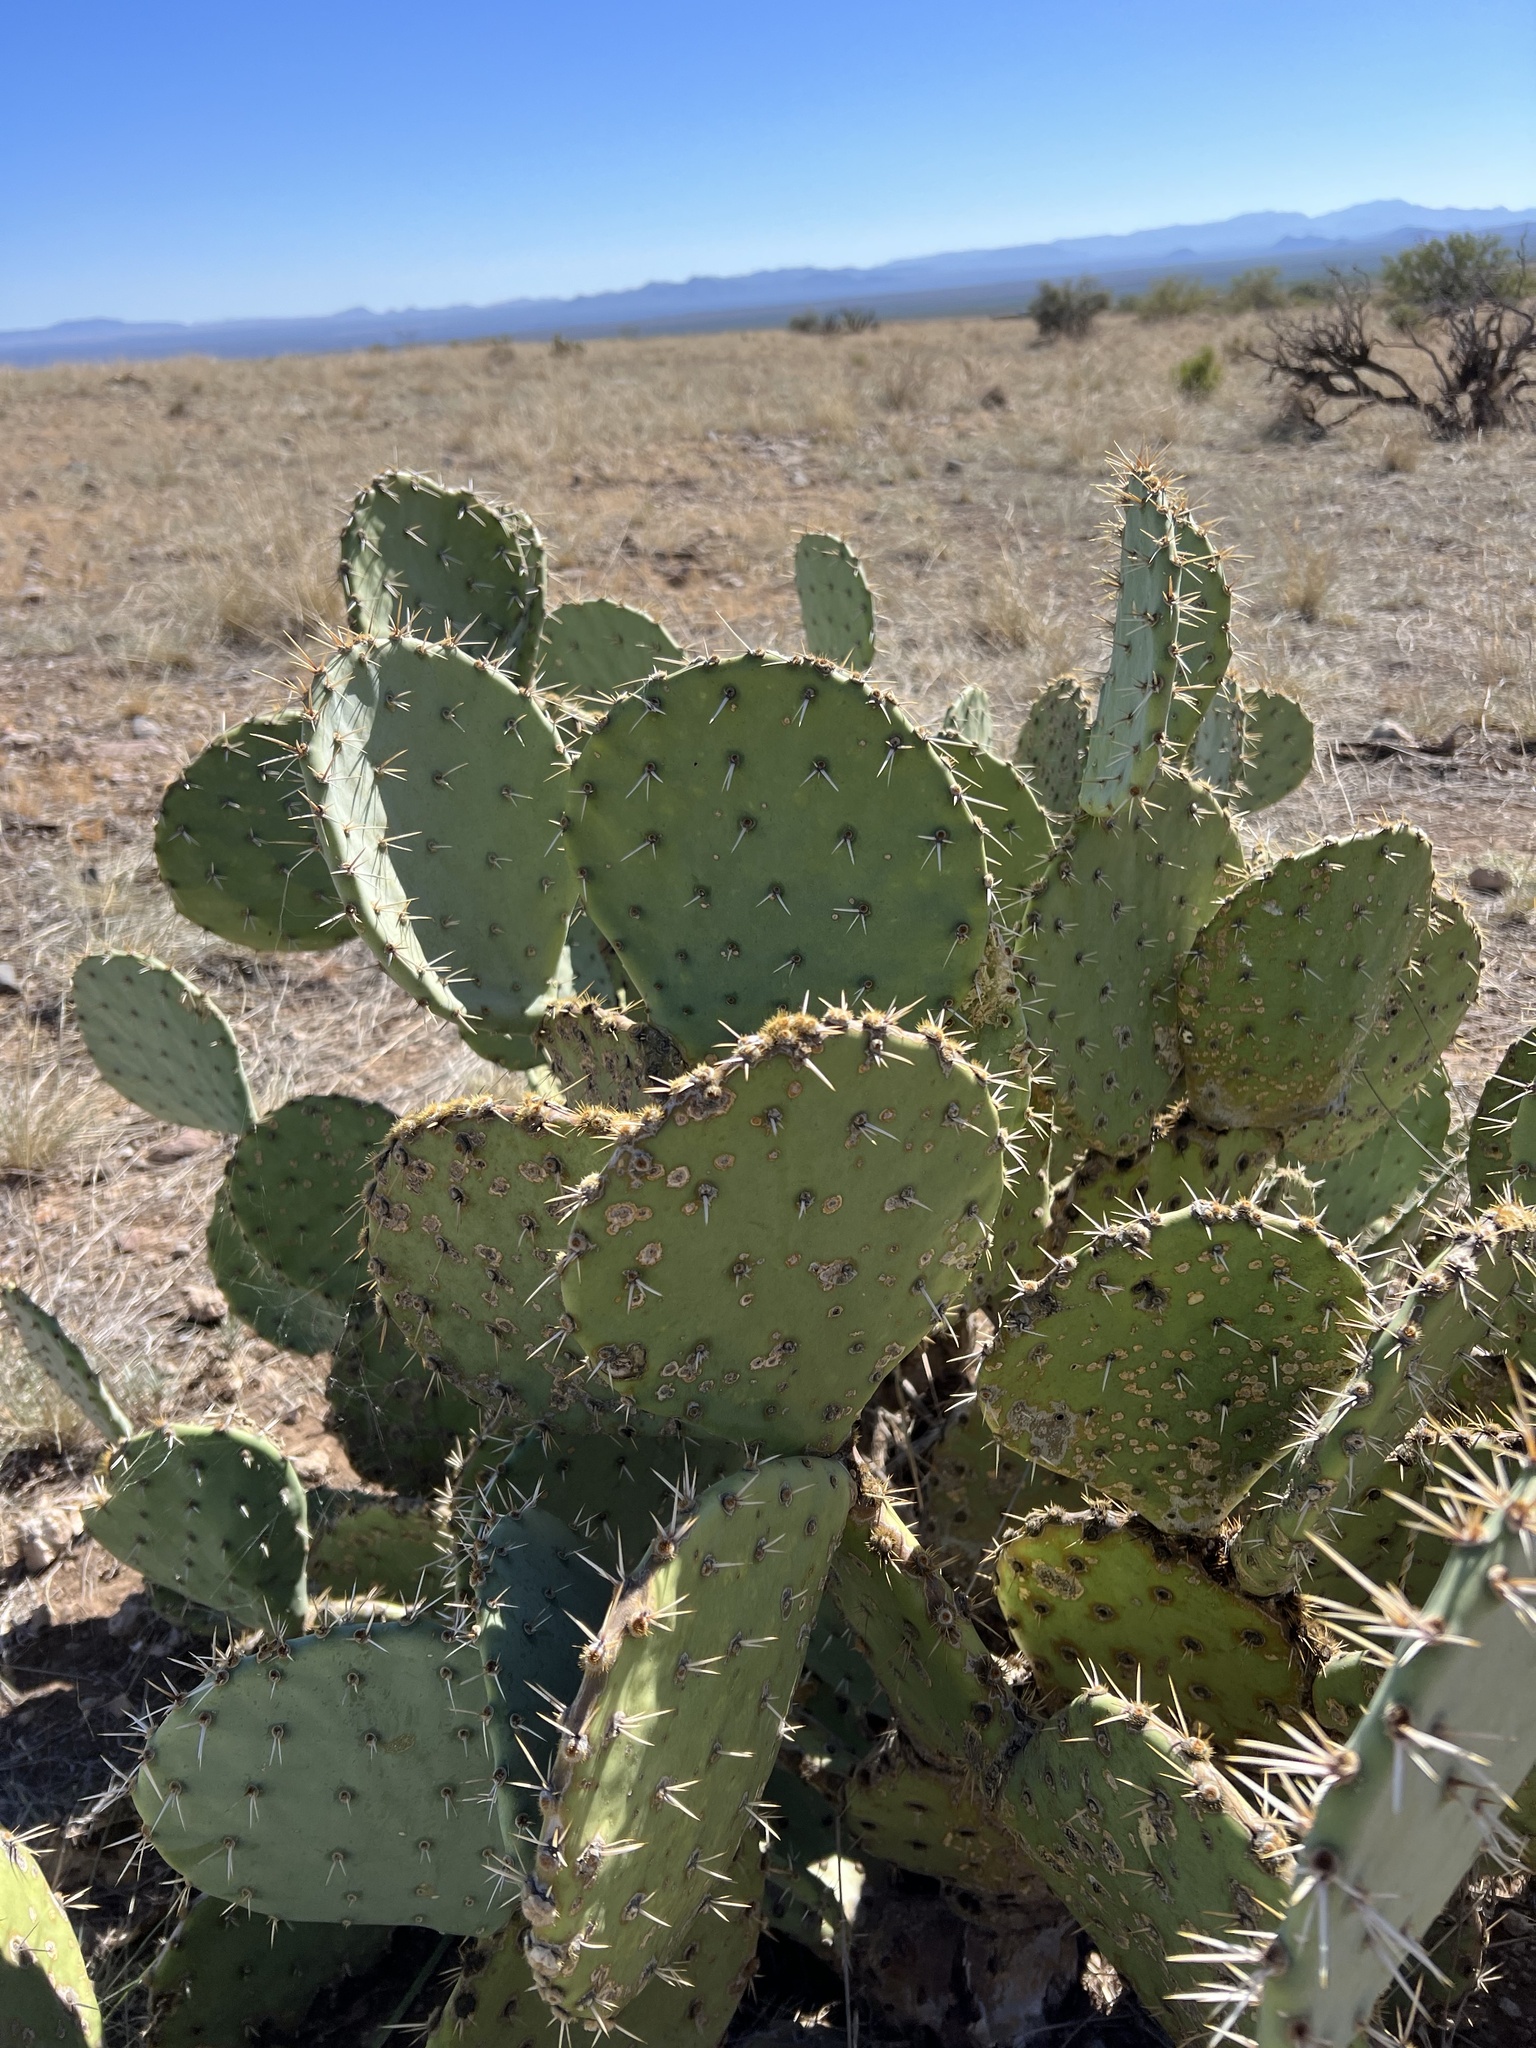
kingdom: Plantae
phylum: Tracheophyta
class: Magnoliopsida
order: Caryophyllales
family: Cactaceae
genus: Opuntia
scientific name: Opuntia engelmannii
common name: Cactus-apple
